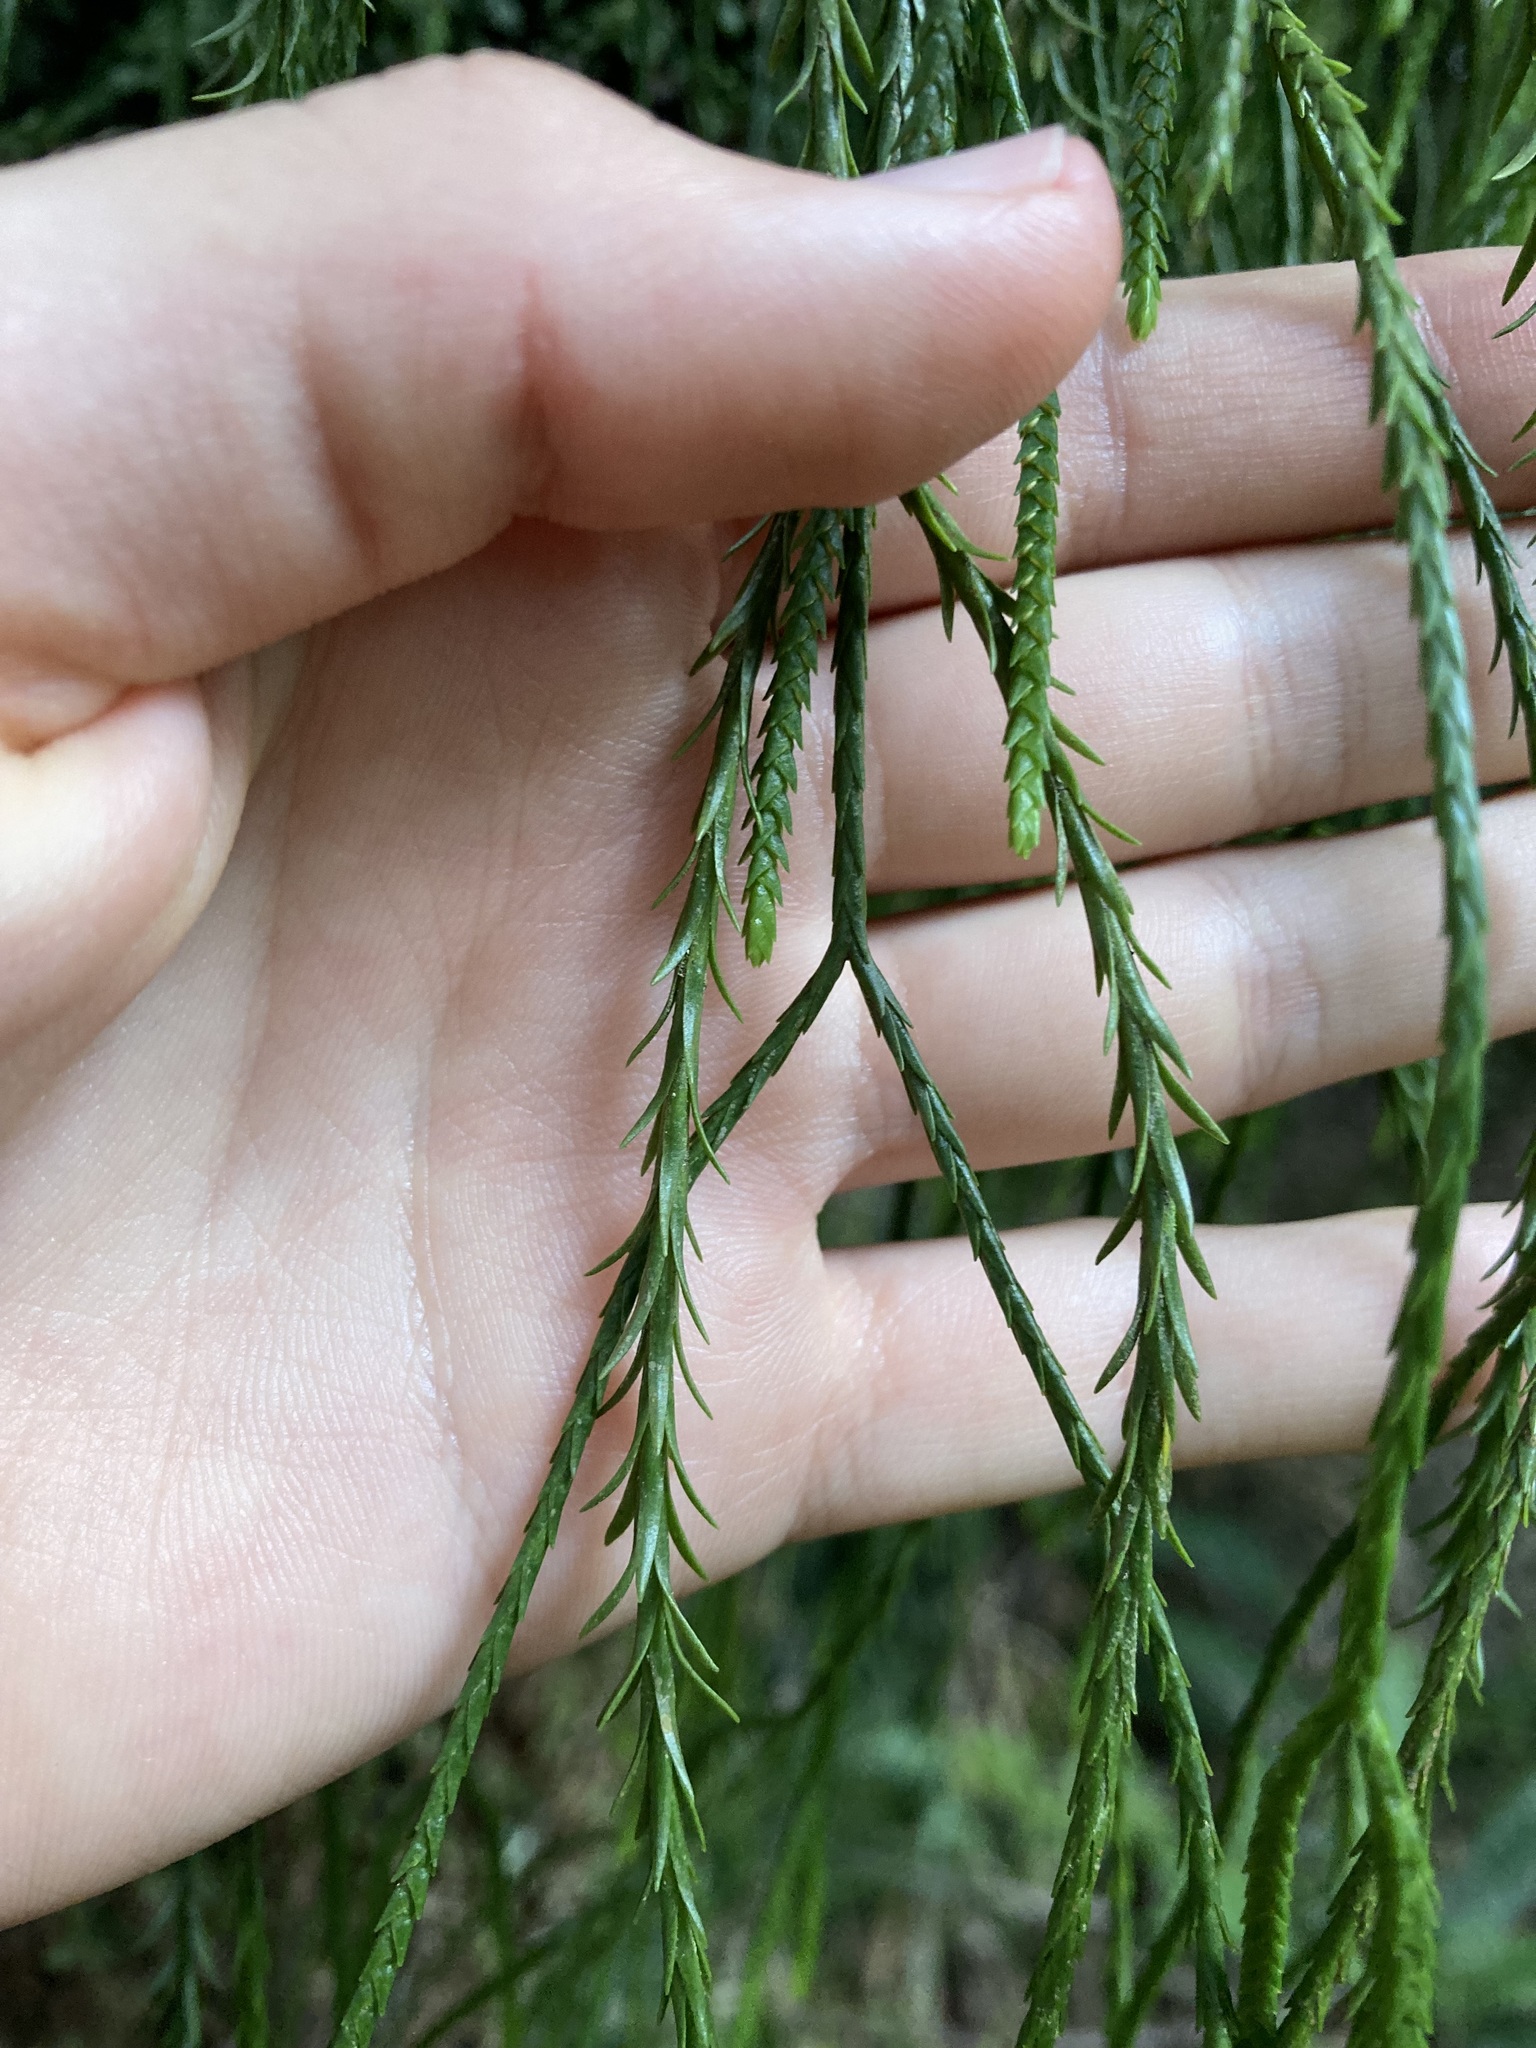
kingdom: Plantae
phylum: Tracheophyta
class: Lycopodiopsida
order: Lycopodiales
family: Lycopodiaceae
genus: Phlegmariurus
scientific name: Phlegmariurus billardierei
